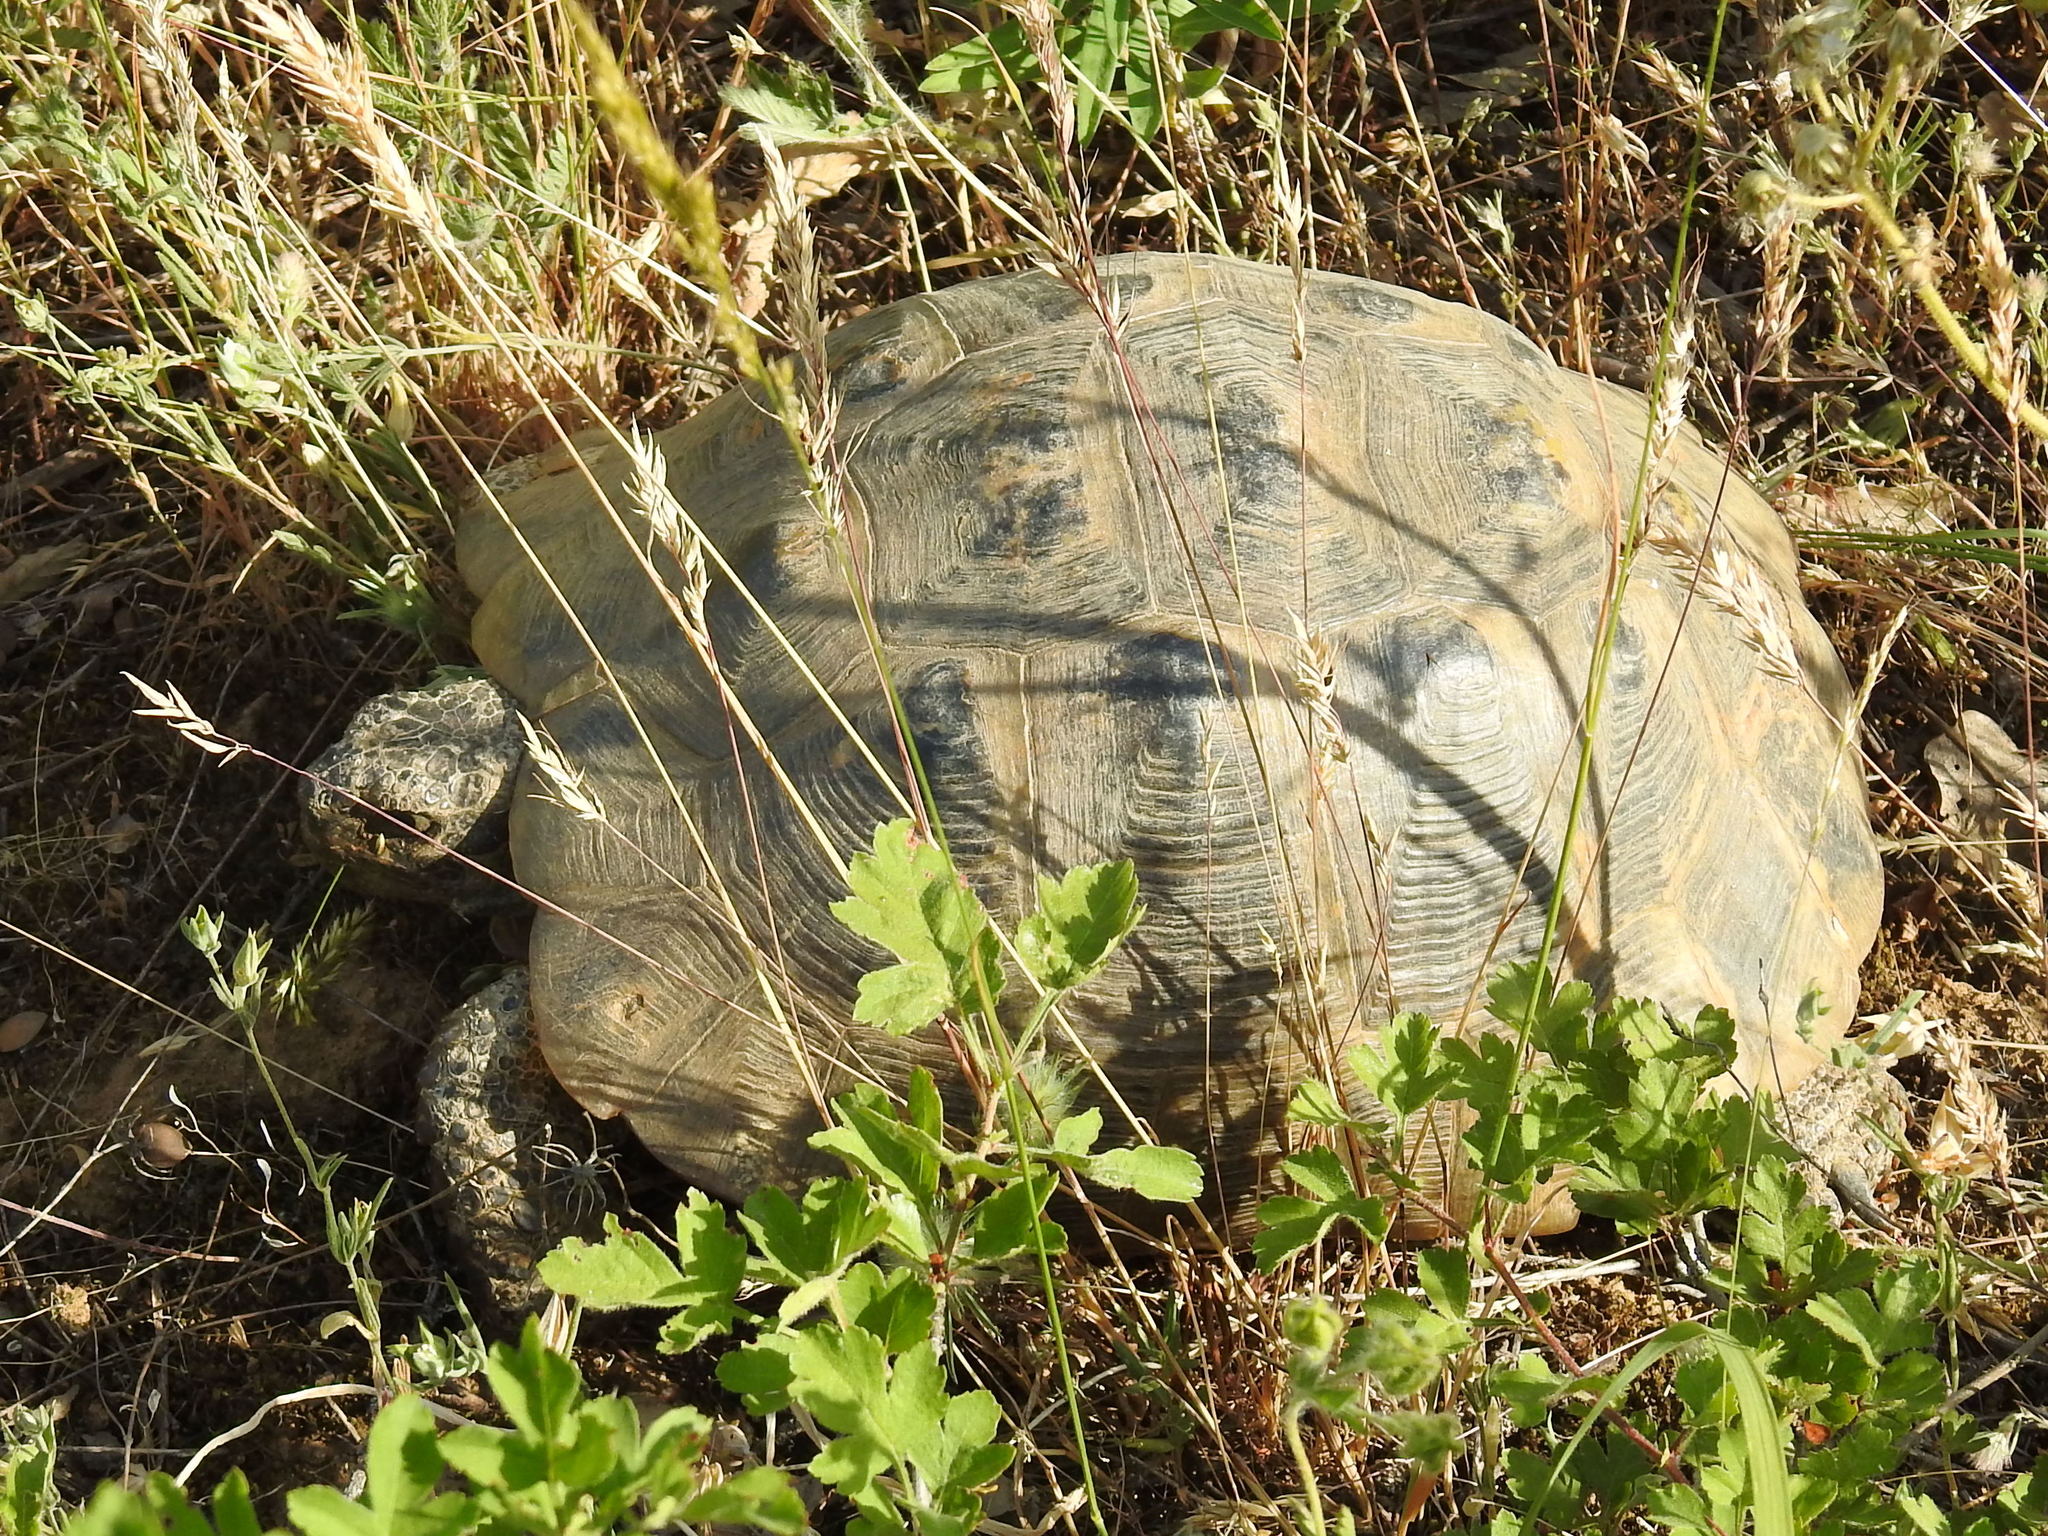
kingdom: Animalia
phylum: Chordata
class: Testudines
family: Testudinidae
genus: Testudo
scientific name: Testudo graeca
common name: Common tortoise
